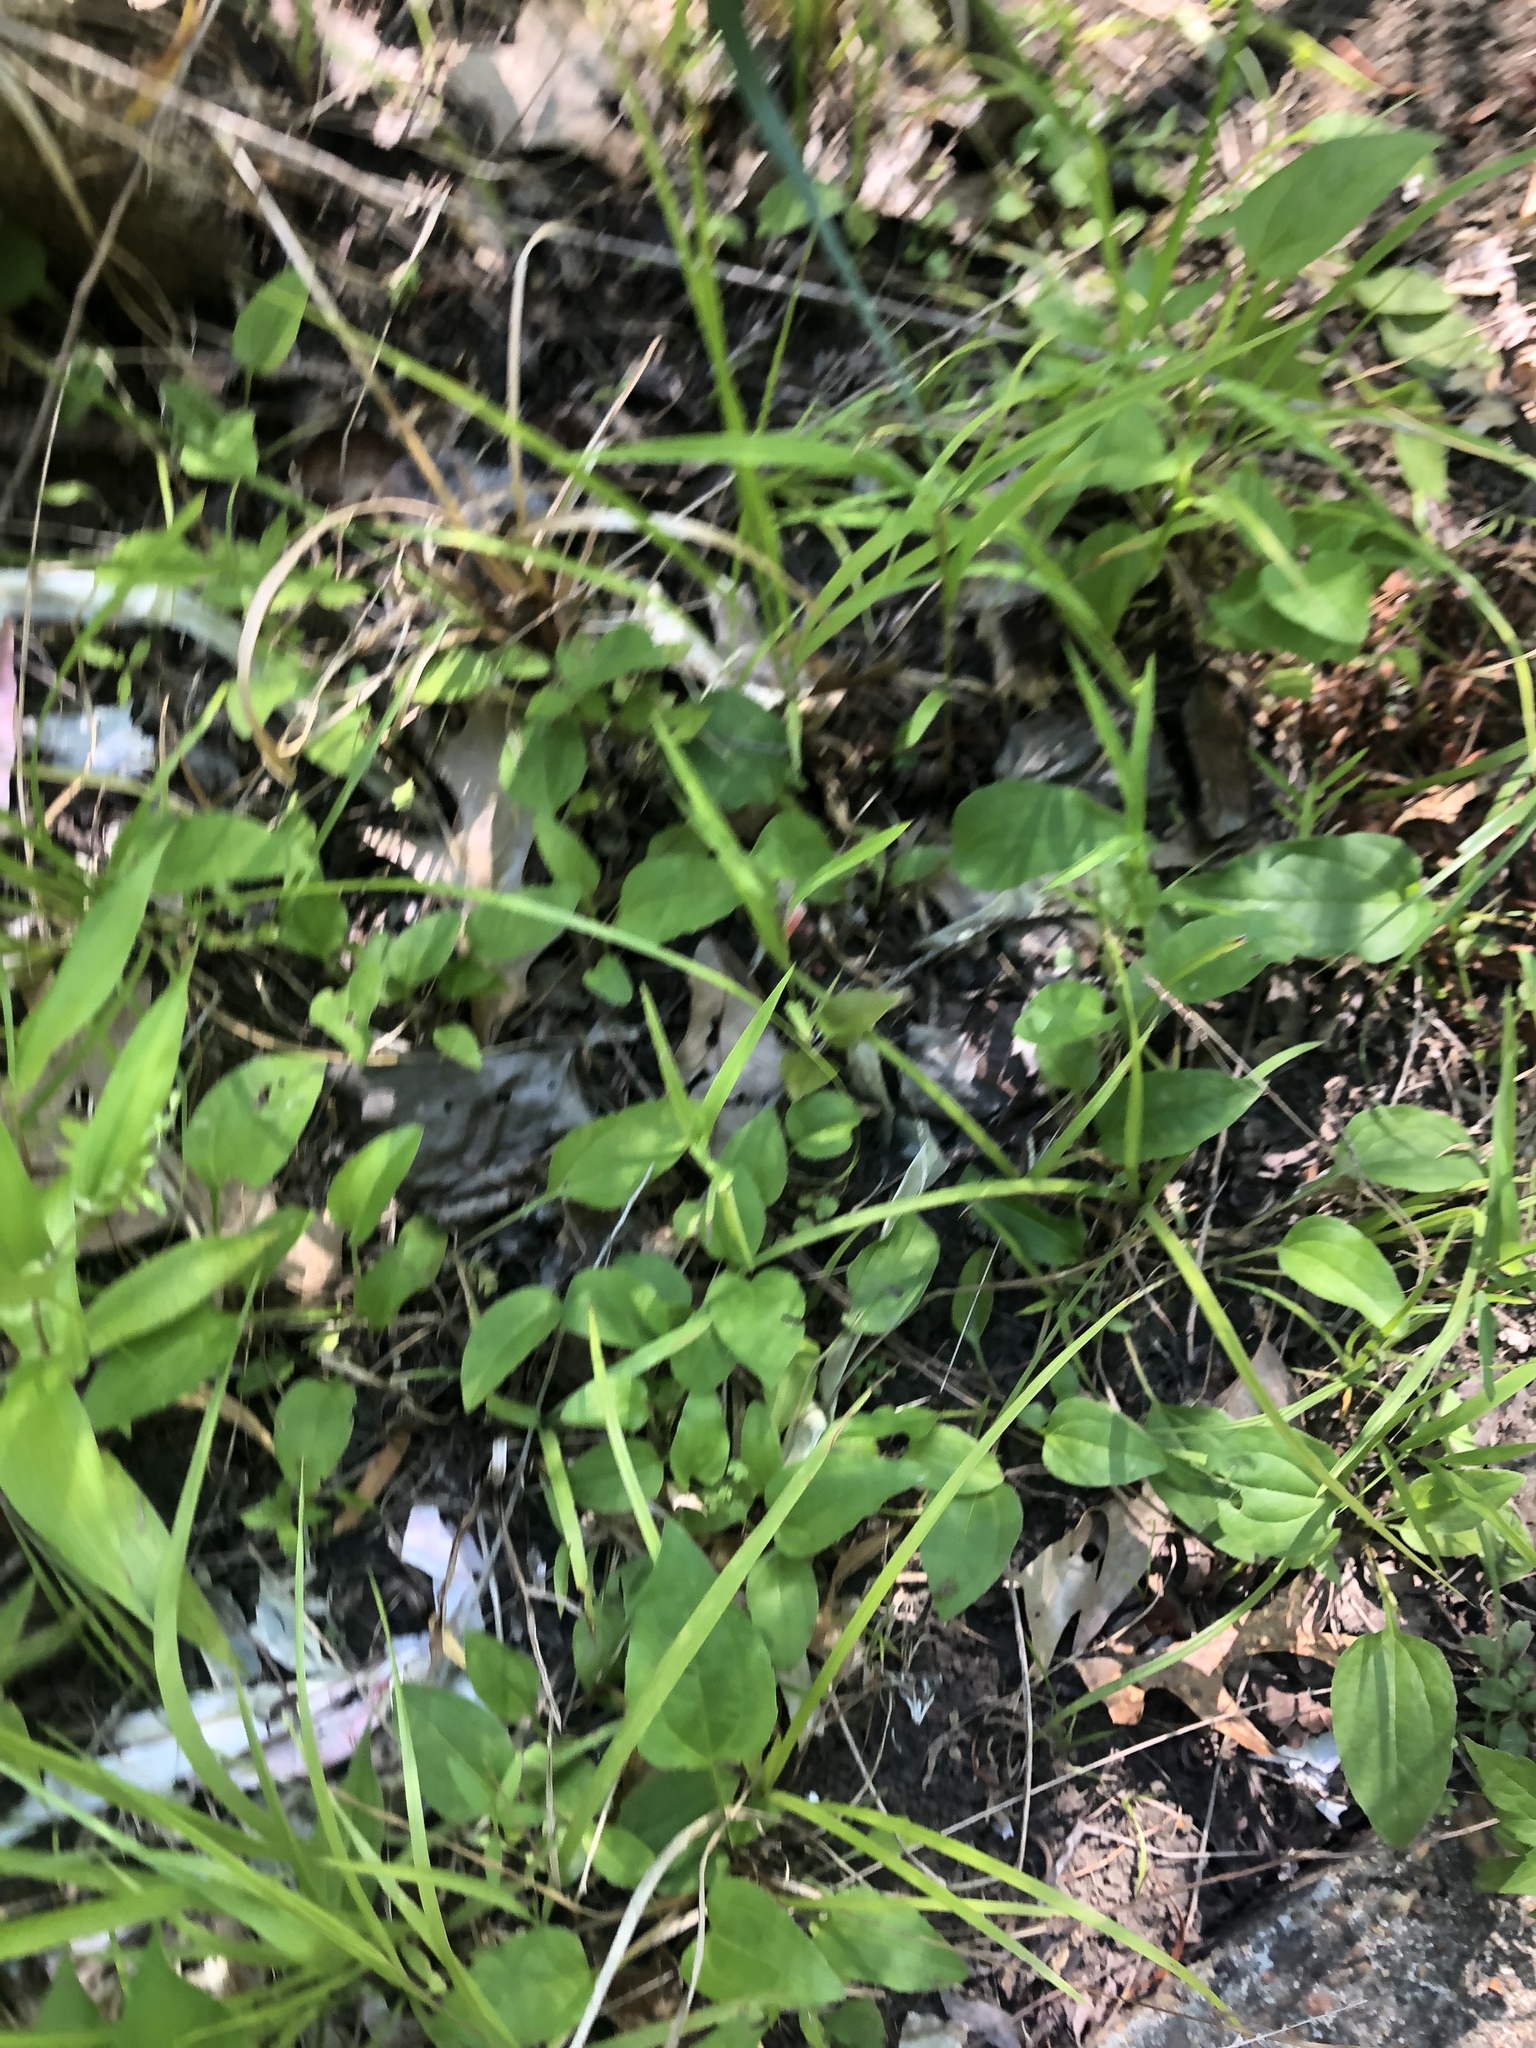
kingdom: Plantae
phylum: Tracheophyta
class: Magnoliopsida
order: Asterales
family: Asteraceae
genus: Echinacea
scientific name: Echinacea purpurea
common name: Broad-leaved purple coneflower
